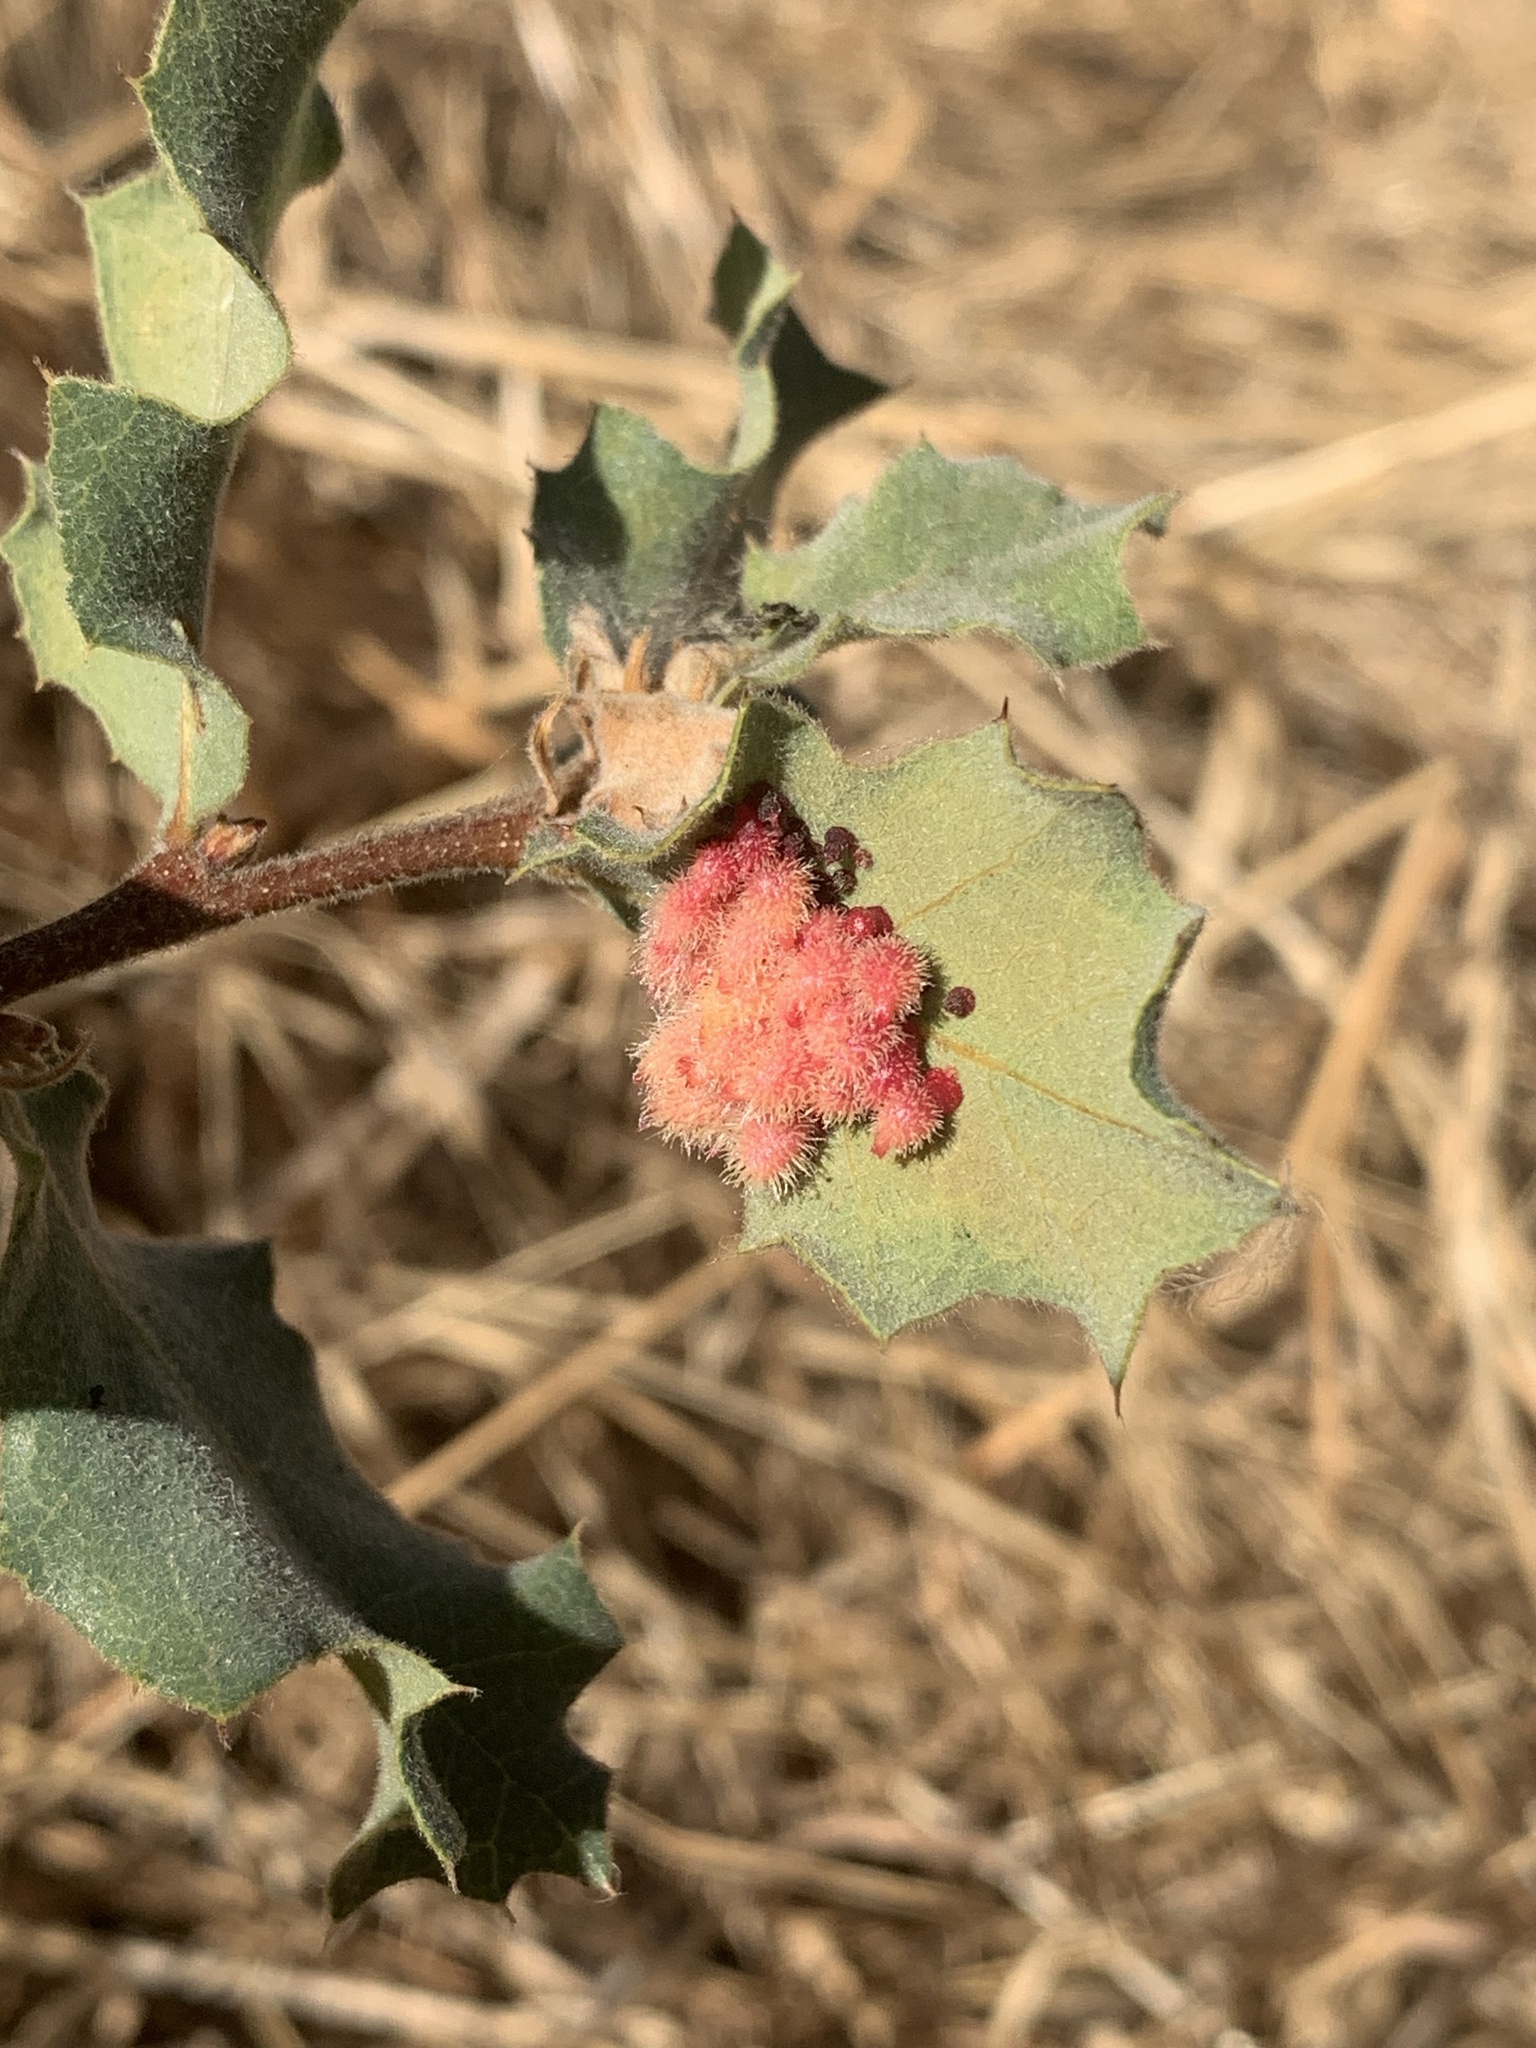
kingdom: Animalia
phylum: Arthropoda
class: Insecta
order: Hymenoptera
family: Cynipidae
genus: Andricus
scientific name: Andricus
